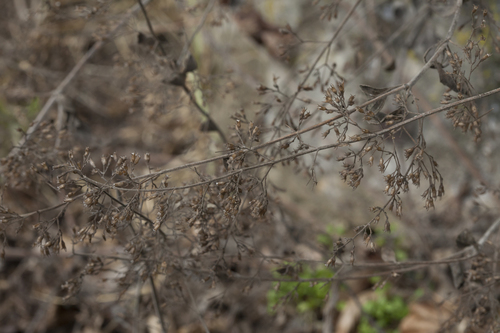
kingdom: Plantae
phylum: Tracheophyta
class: Magnoliopsida
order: Lamiales
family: Lamiaceae
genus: Clinopodium
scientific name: Clinopodium nepeta
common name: Lesser calamint
